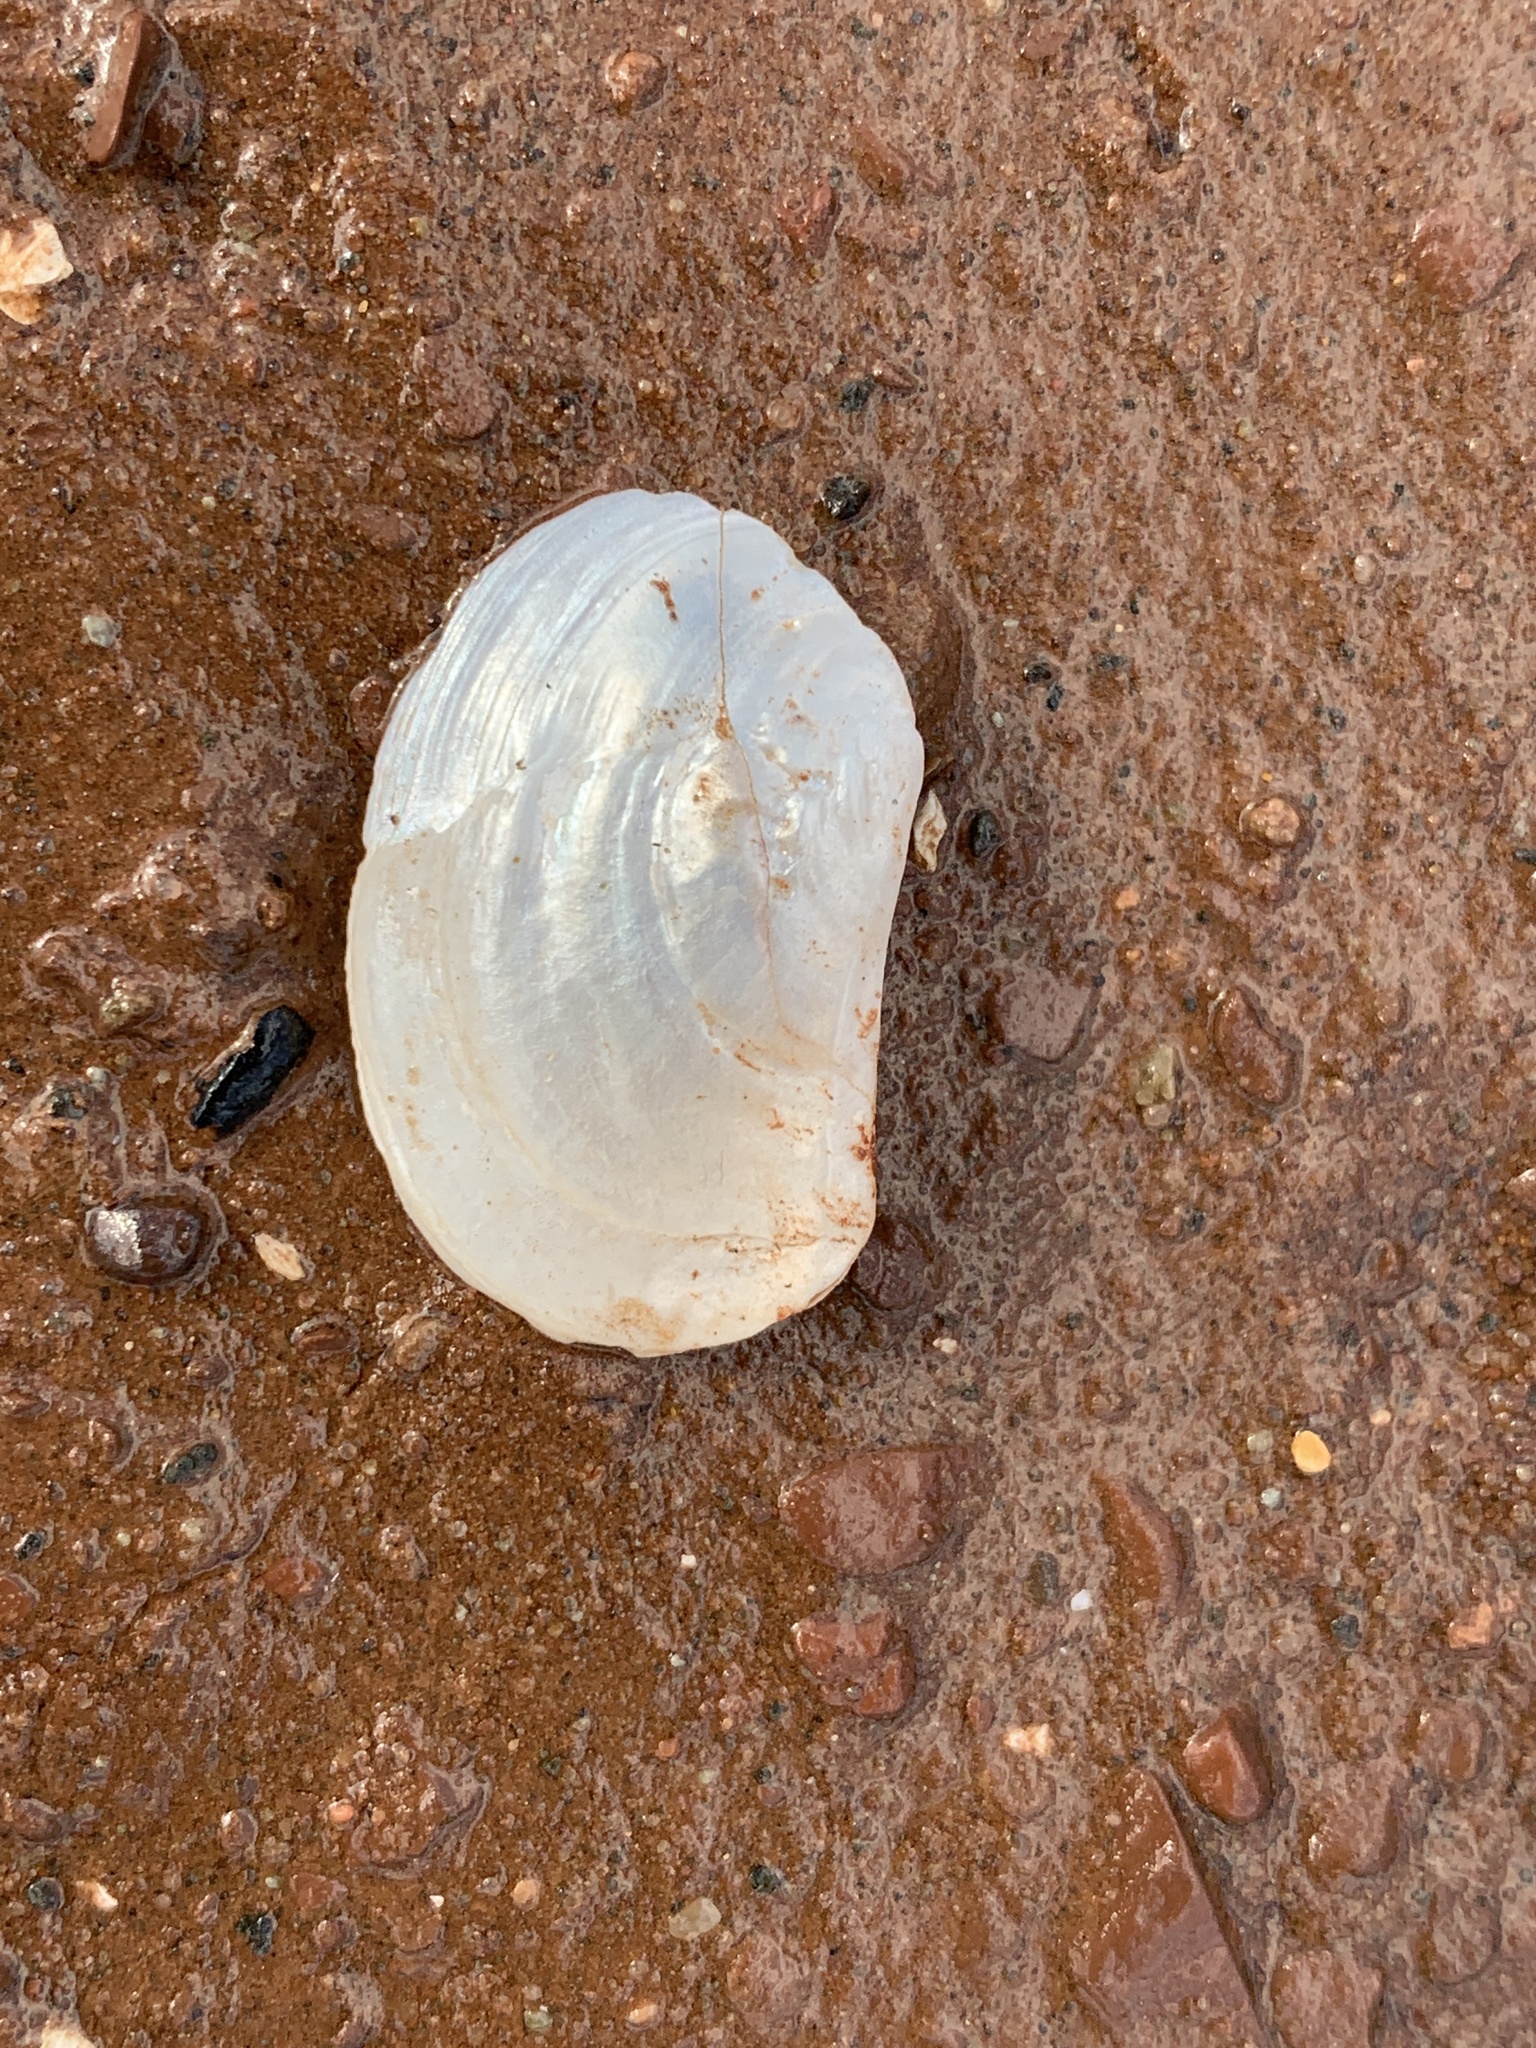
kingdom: Animalia
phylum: Mollusca
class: Bivalvia
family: Pandoridae
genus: Pandora
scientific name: Pandora gouldiana
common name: Rounded pandora
